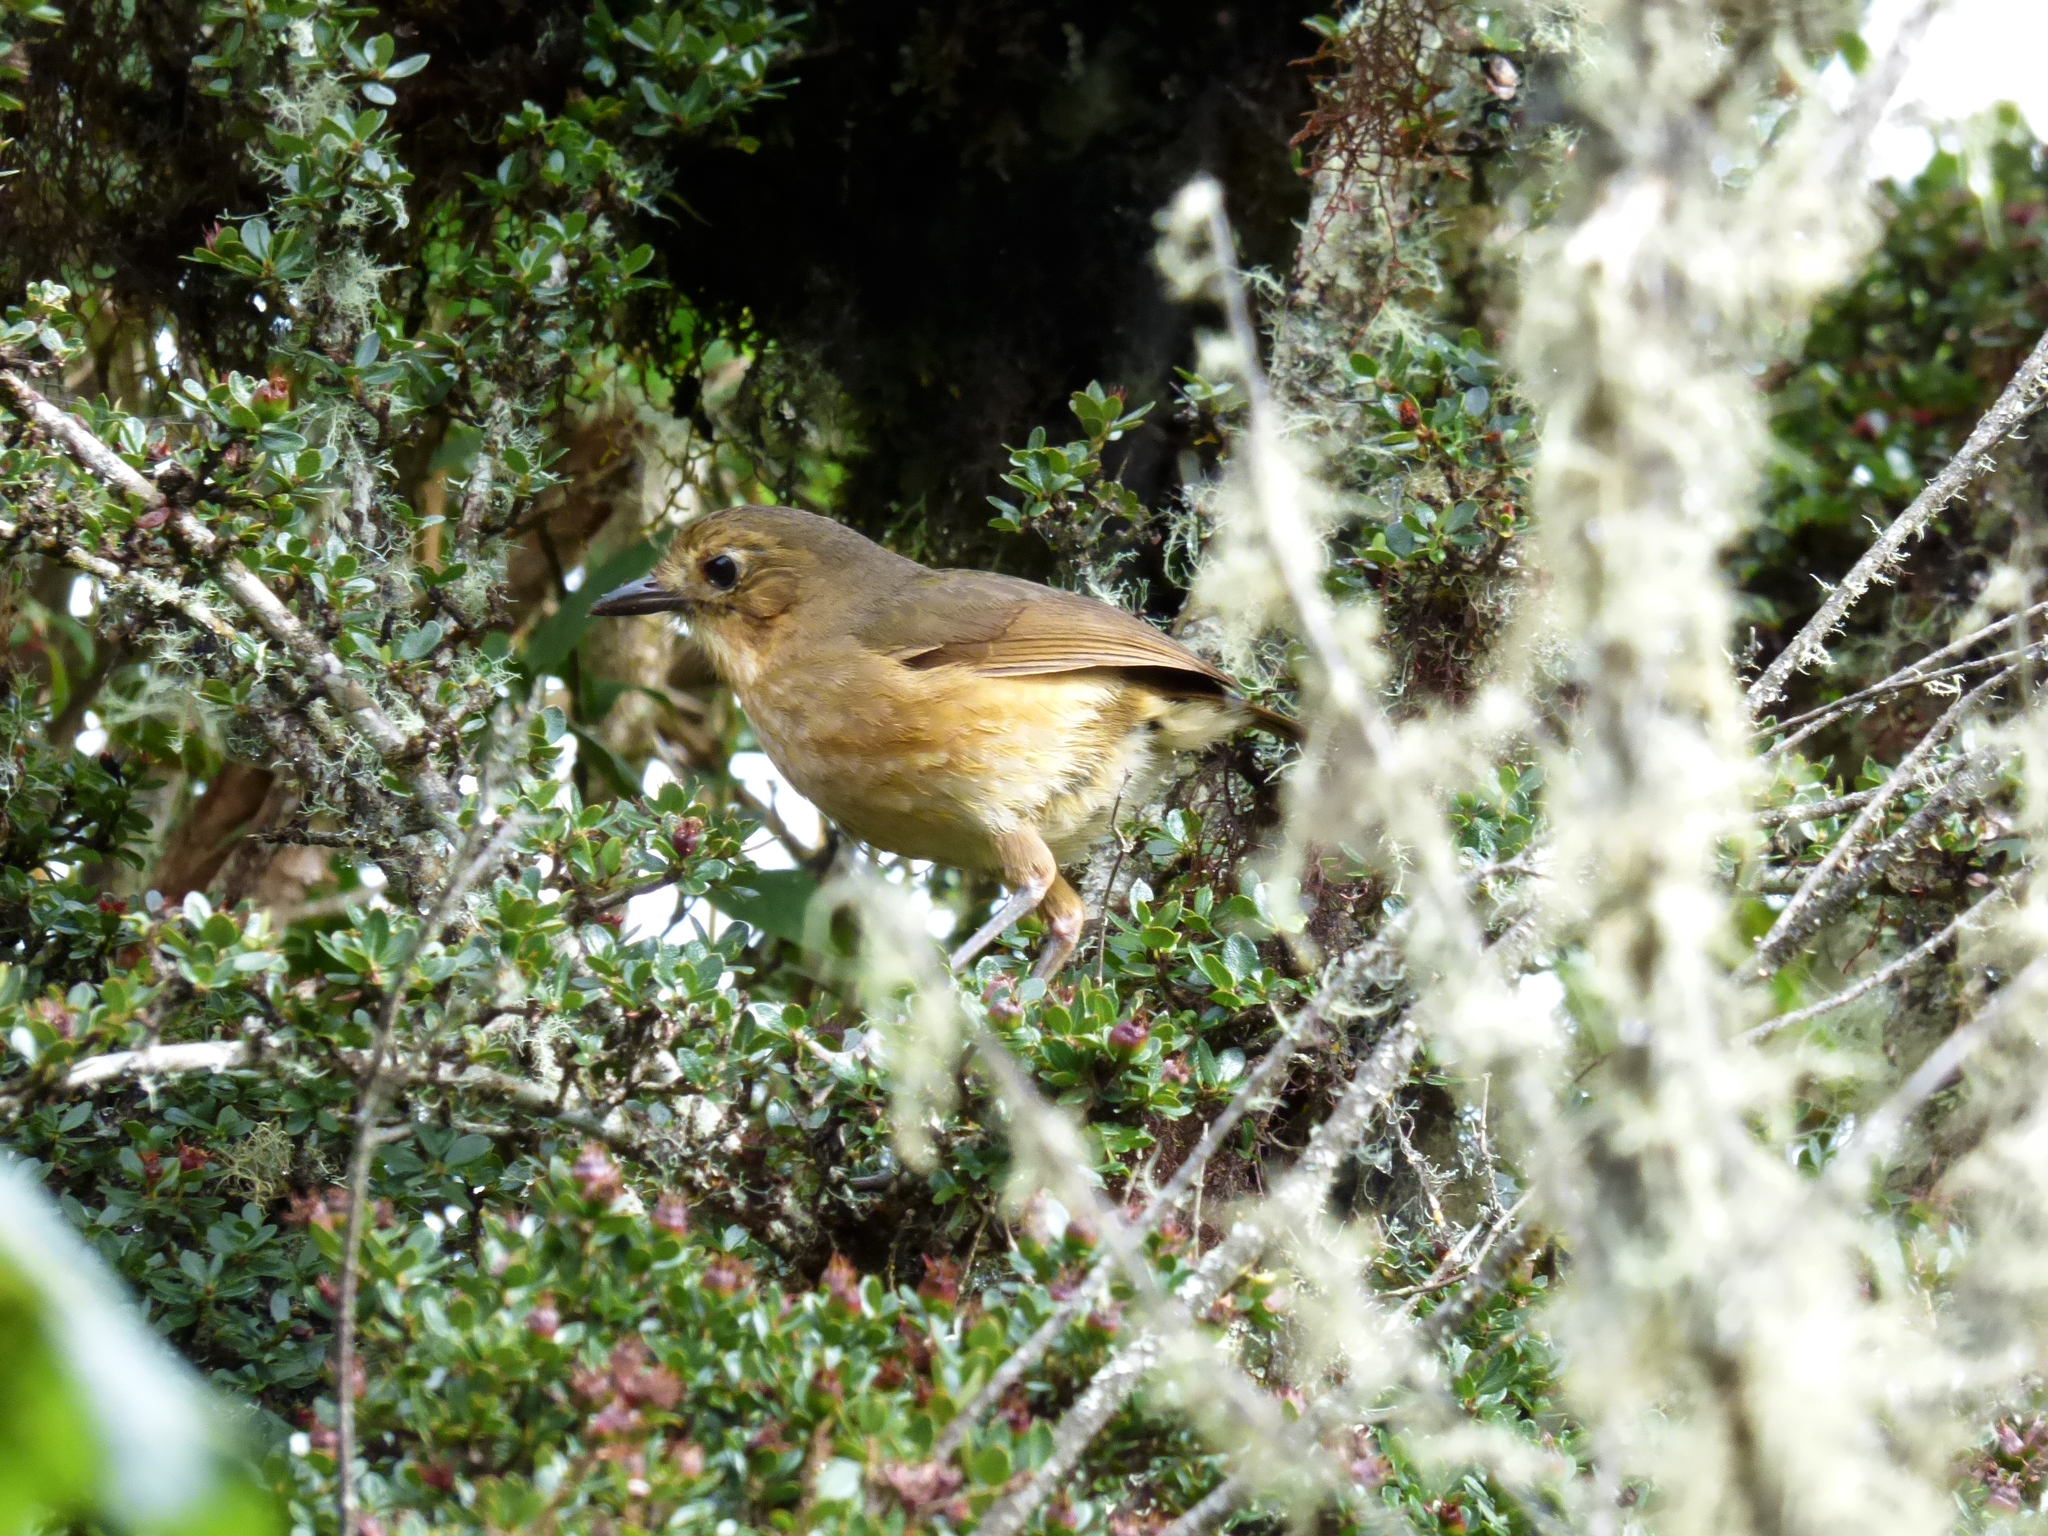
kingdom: Animalia
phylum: Chordata
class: Aves
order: Passeriformes
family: Grallariidae
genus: Grallaria
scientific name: Grallaria quitensis
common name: Tawny antpitta
